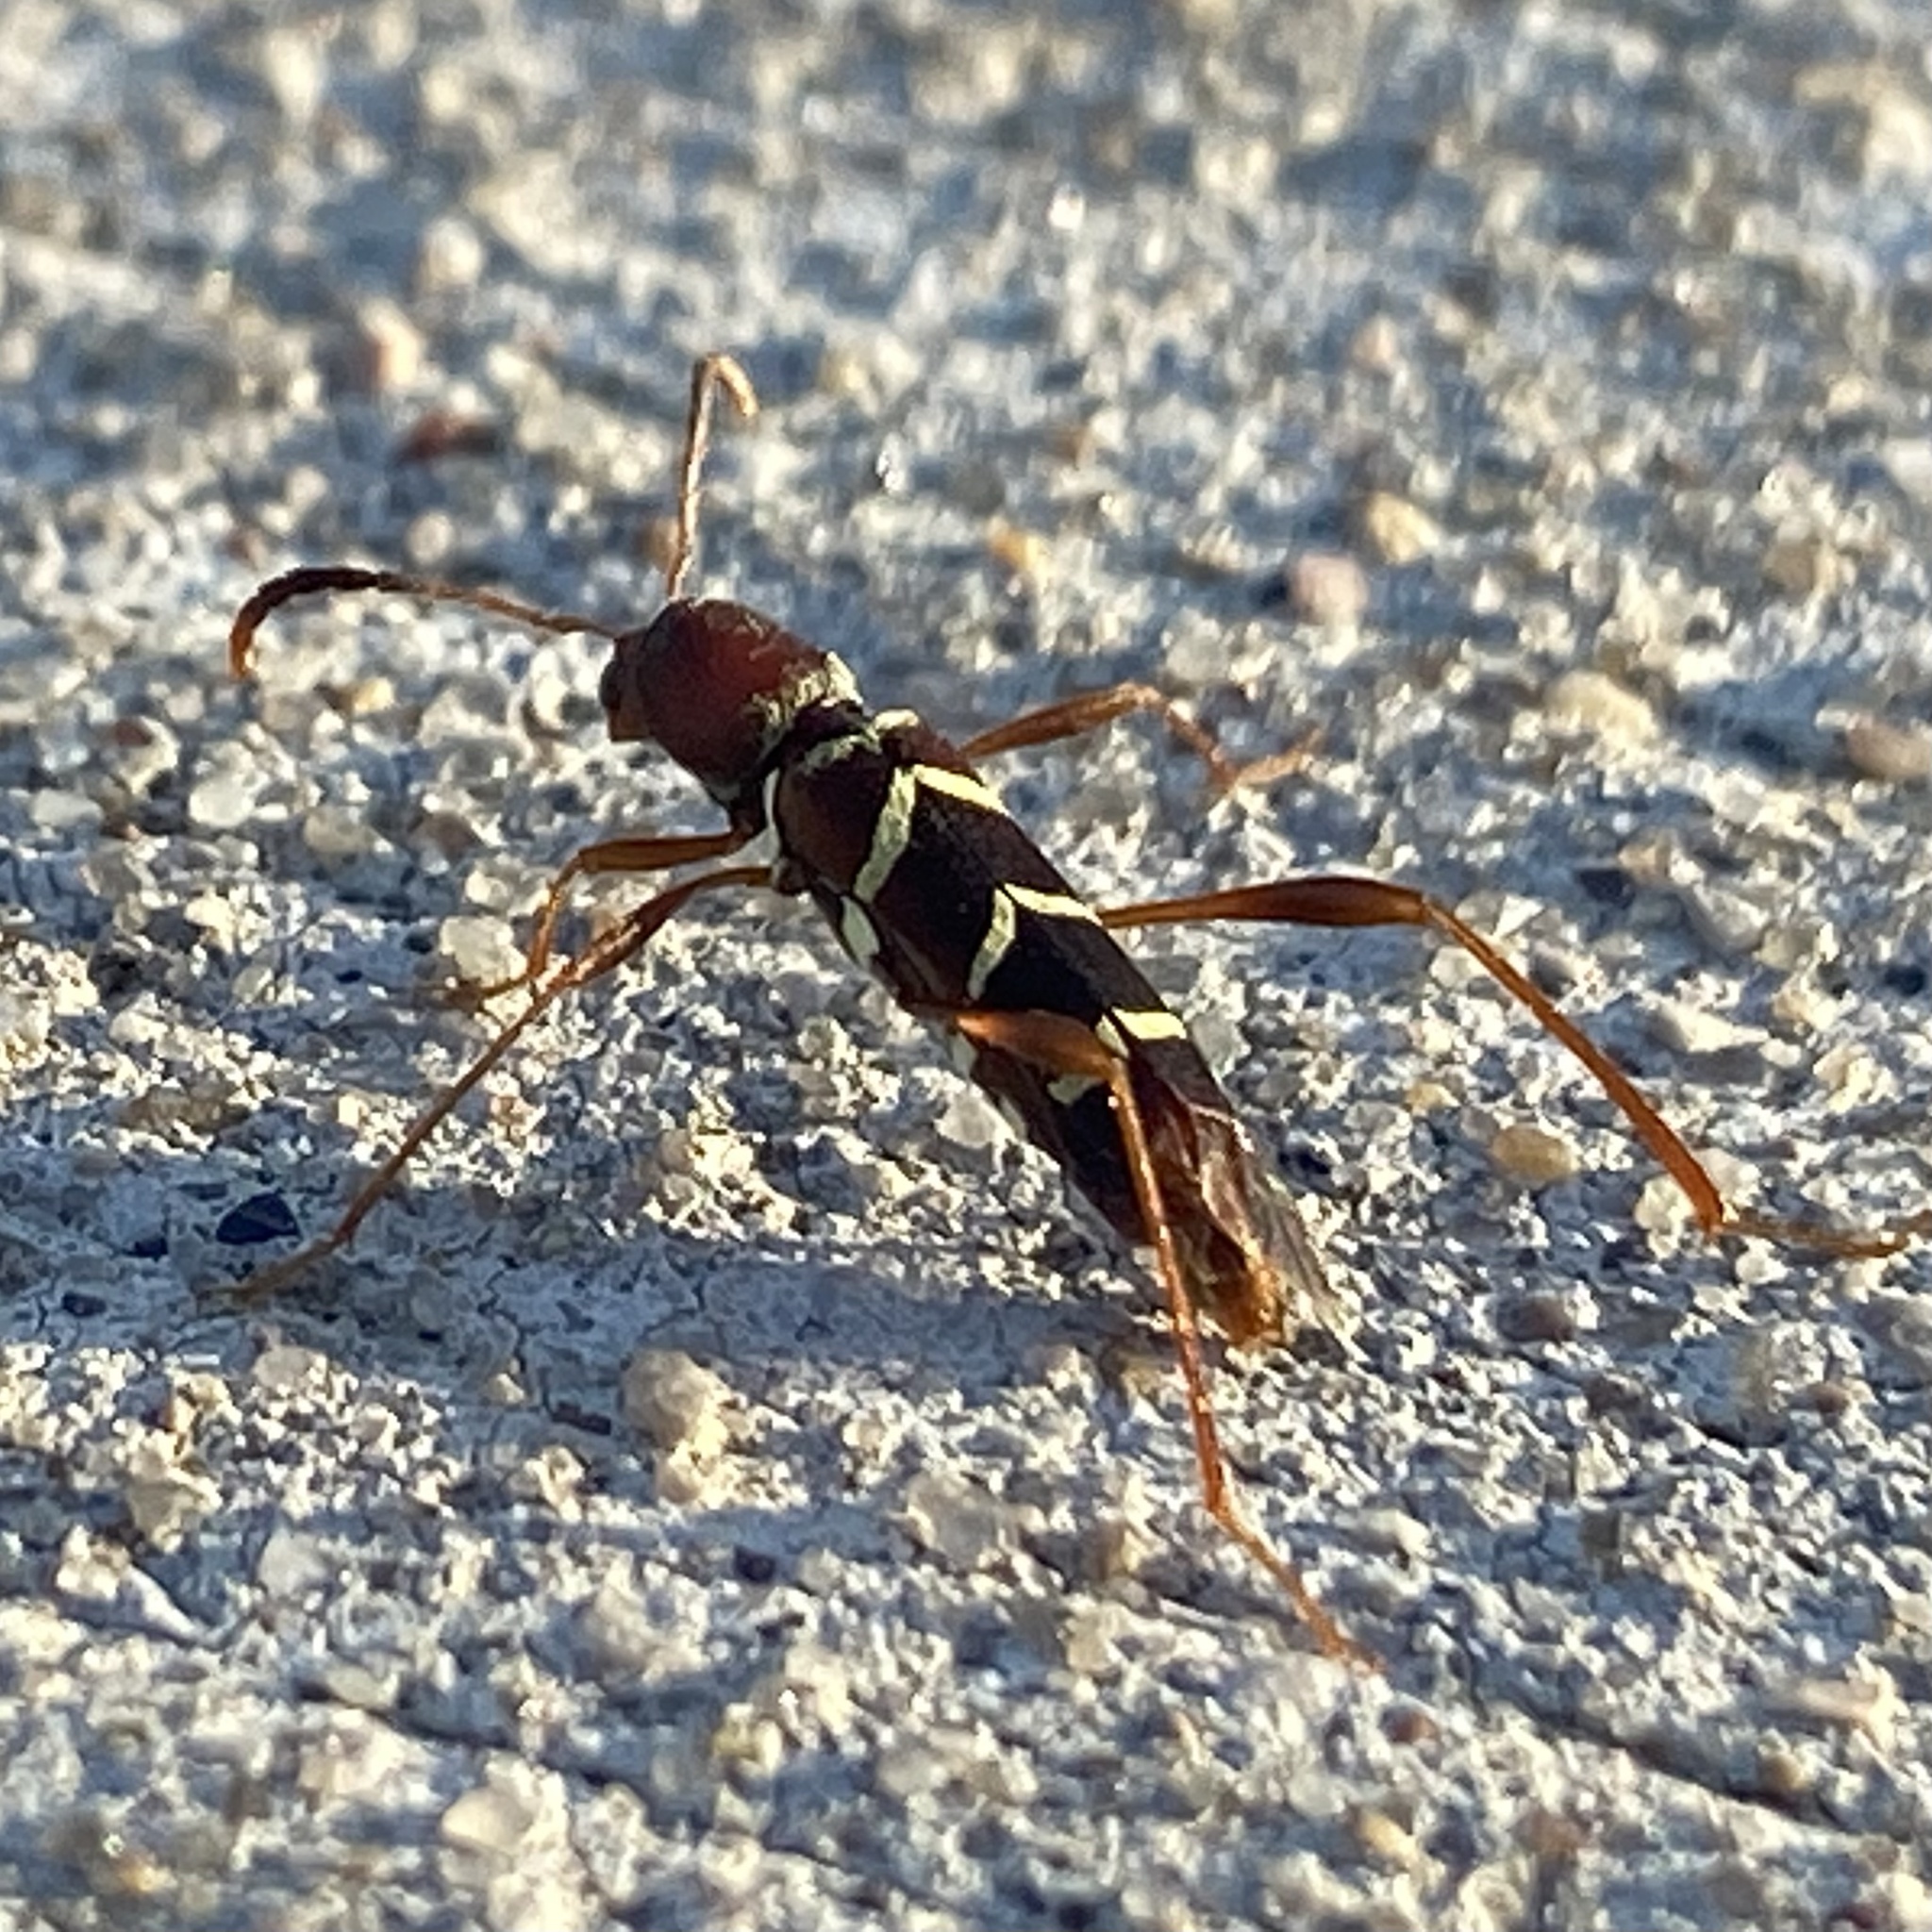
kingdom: Animalia
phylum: Arthropoda
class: Insecta
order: Coleoptera
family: Cerambycidae
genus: Neoclytus
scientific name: Neoclytus acuminatus
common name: Read-headed ash borer
